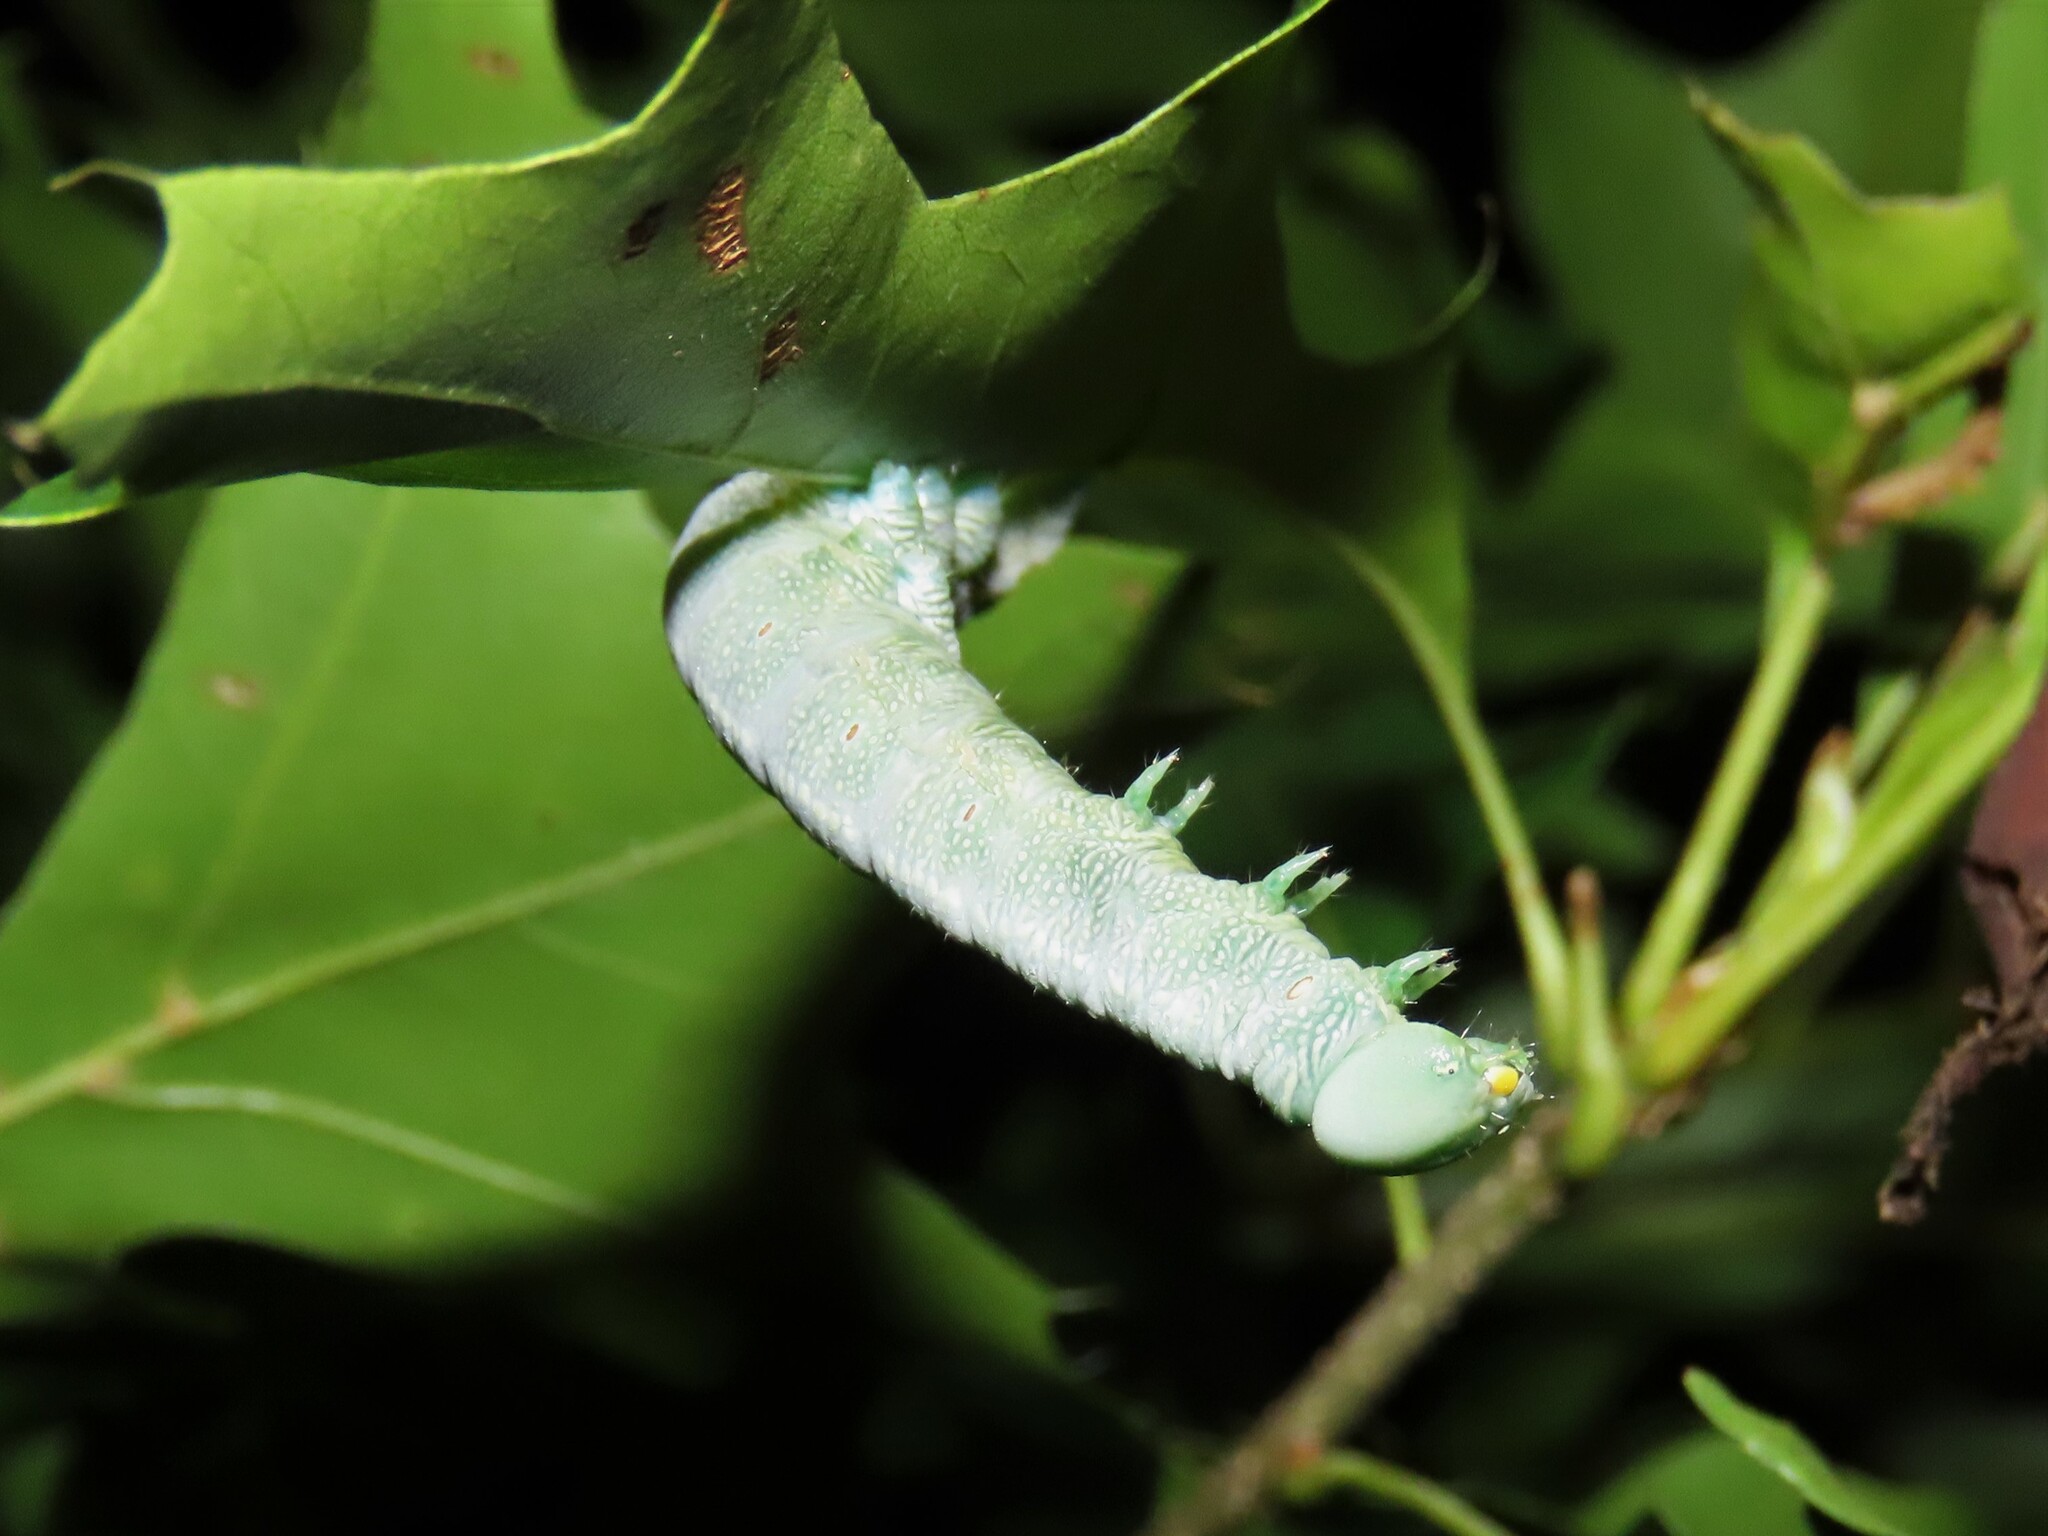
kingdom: Animalia
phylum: Arthropoda
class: Insecta
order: Lepidoptera
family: Notodontidae
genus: Nadata
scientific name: Nadata gibbosa
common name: White-dotted prominent
